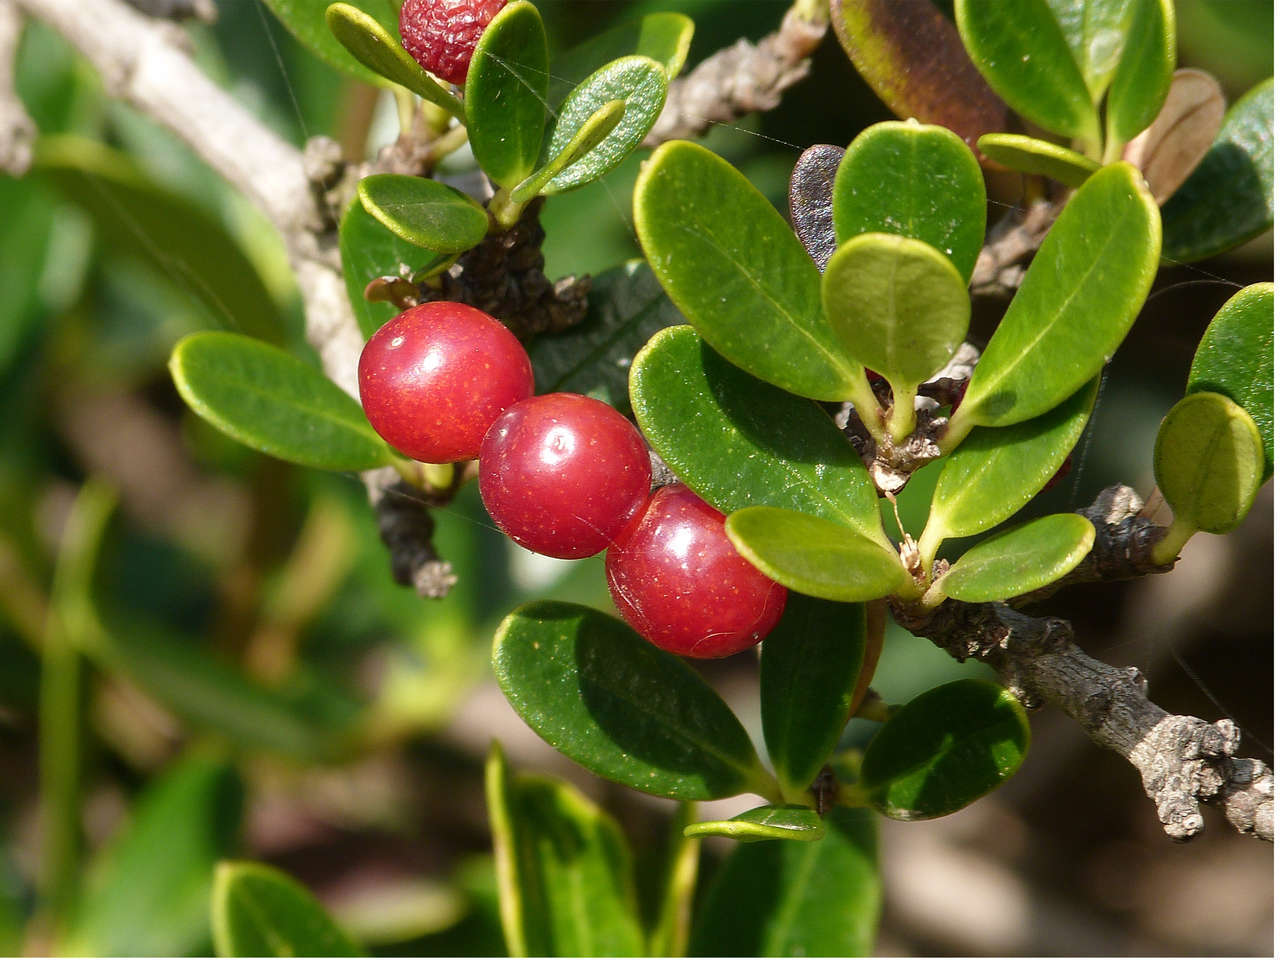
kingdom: Plantae
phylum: Tracheophyta
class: Magnoliopsida
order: Gentianales
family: Apocynaceae
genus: Alyxia
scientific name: Alyxia buxifolia
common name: Dysentery-bush
